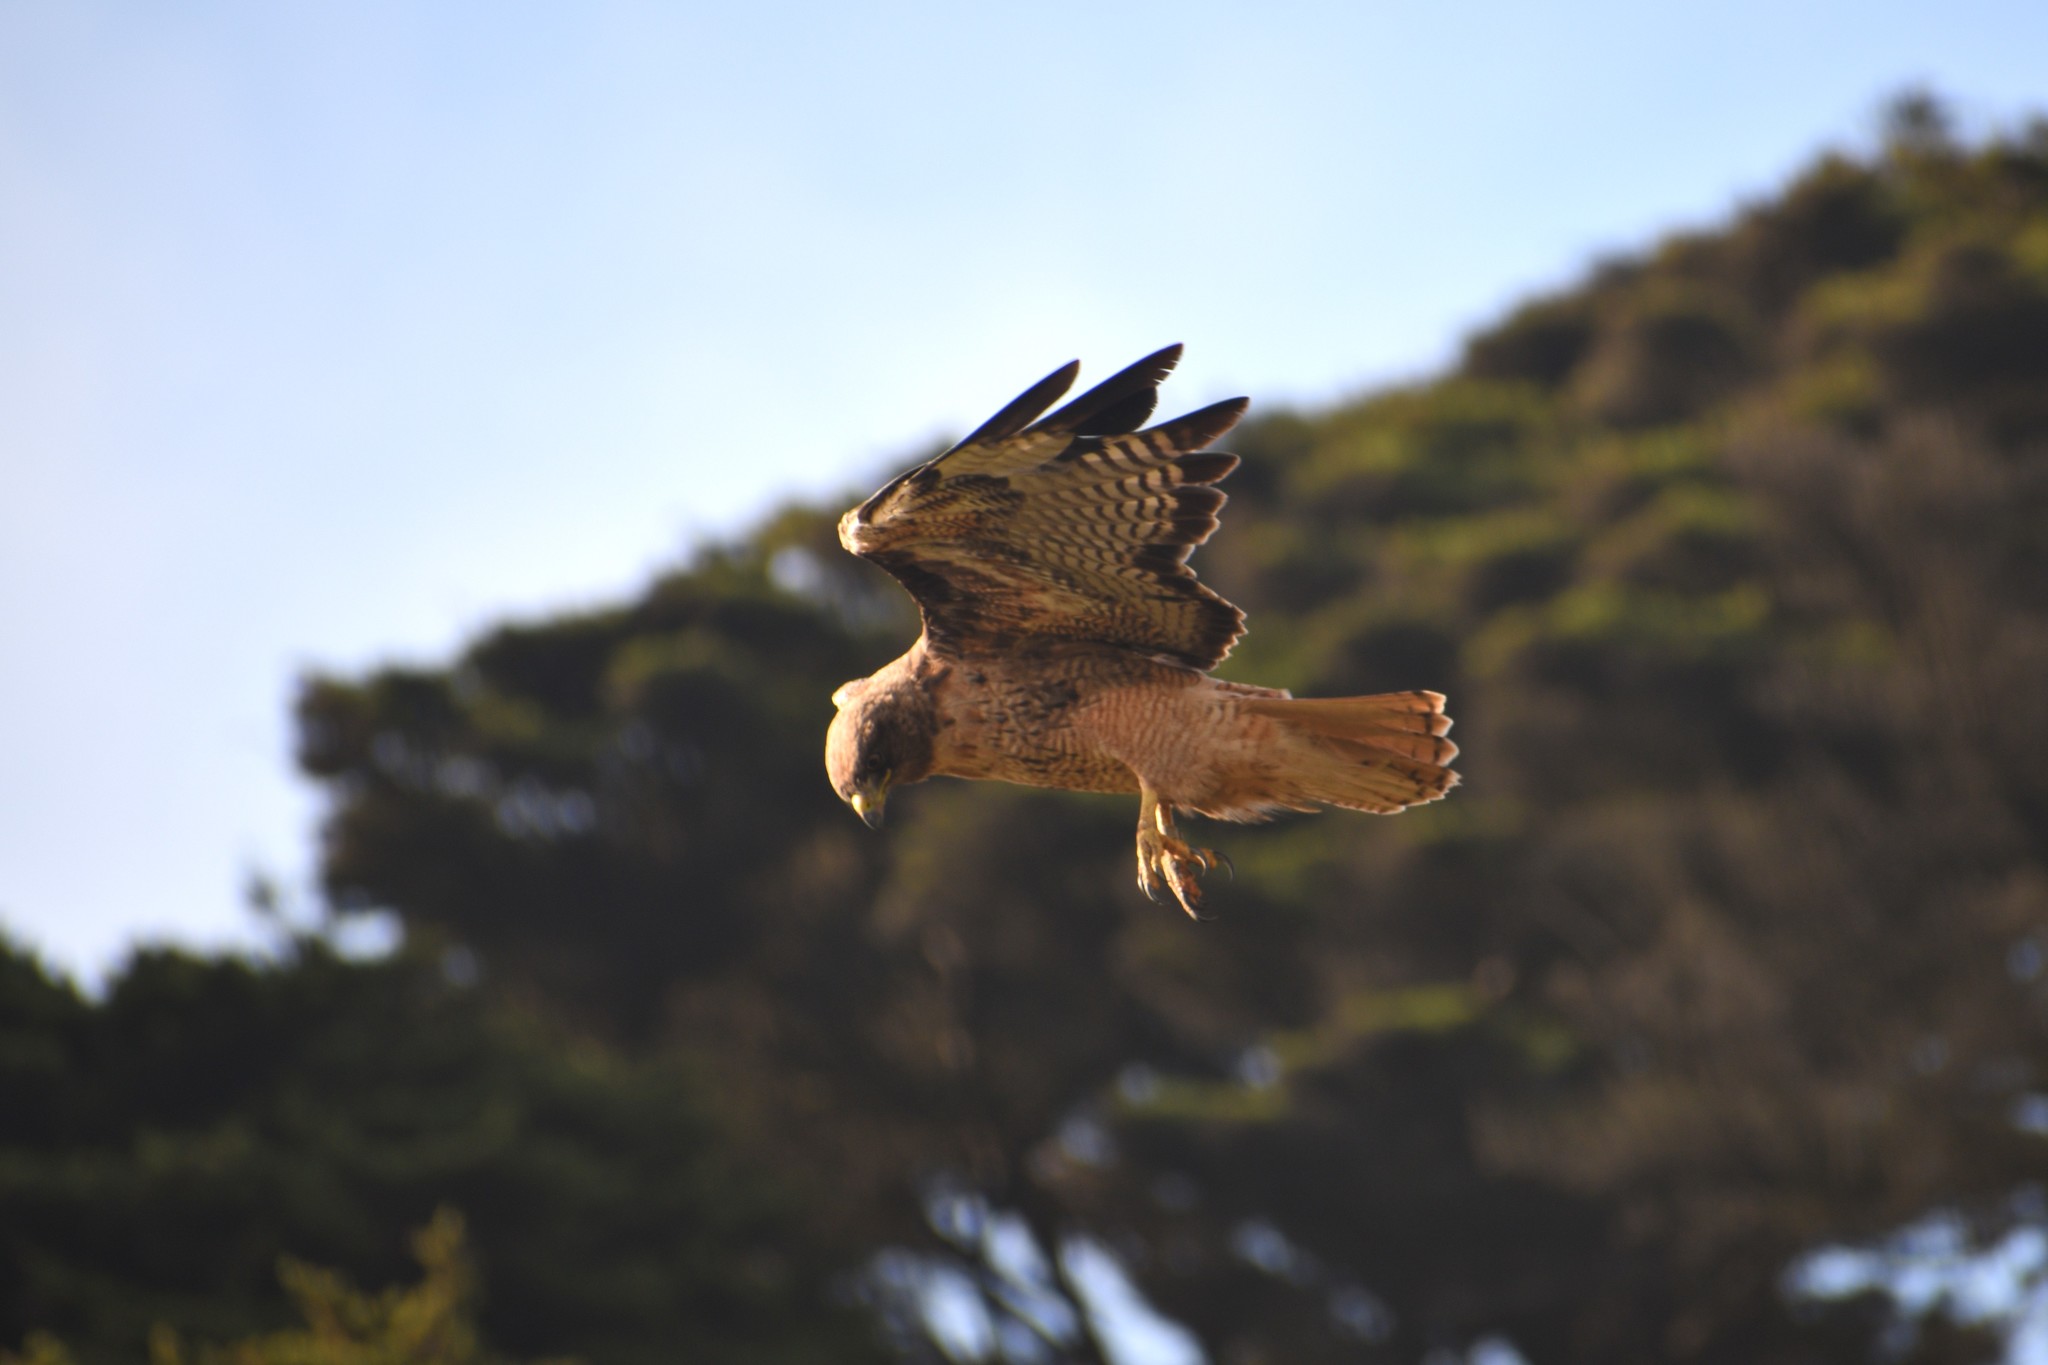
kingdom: Animalia
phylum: Chordata
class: Aves
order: Accipitriformes
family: Accipitridae
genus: Buteo
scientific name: Buteo jamaicensis
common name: Red-tailed hawk
